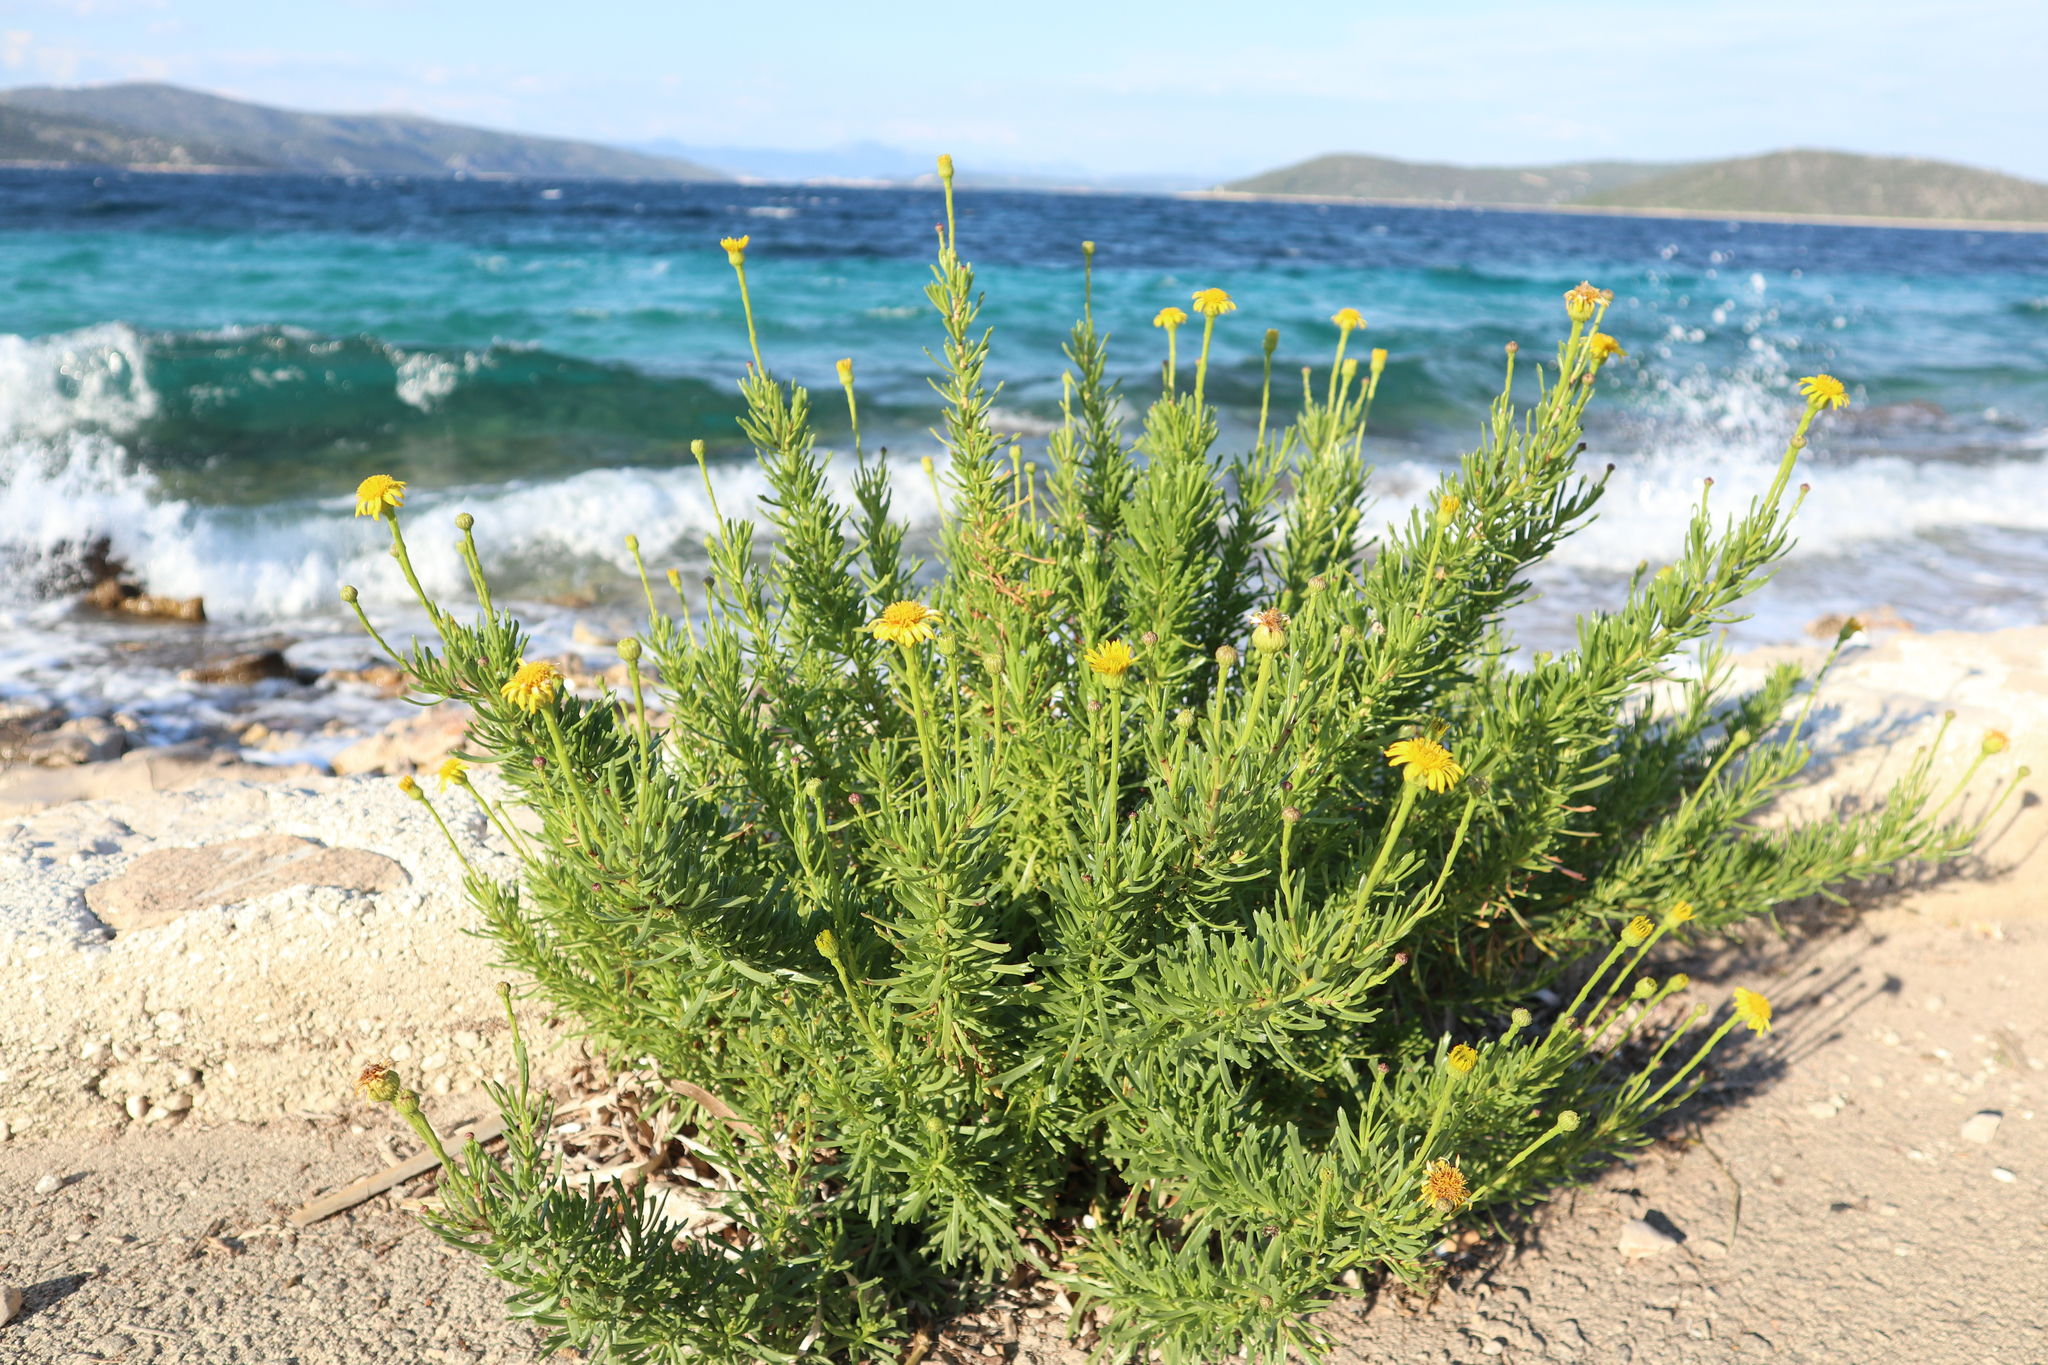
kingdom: Plantae
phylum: Tracheophyta
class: Magnoliopsida
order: Asterales
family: Asteraceae
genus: Limbarda
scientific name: Limbarda crithmoides
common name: Golden samphire
